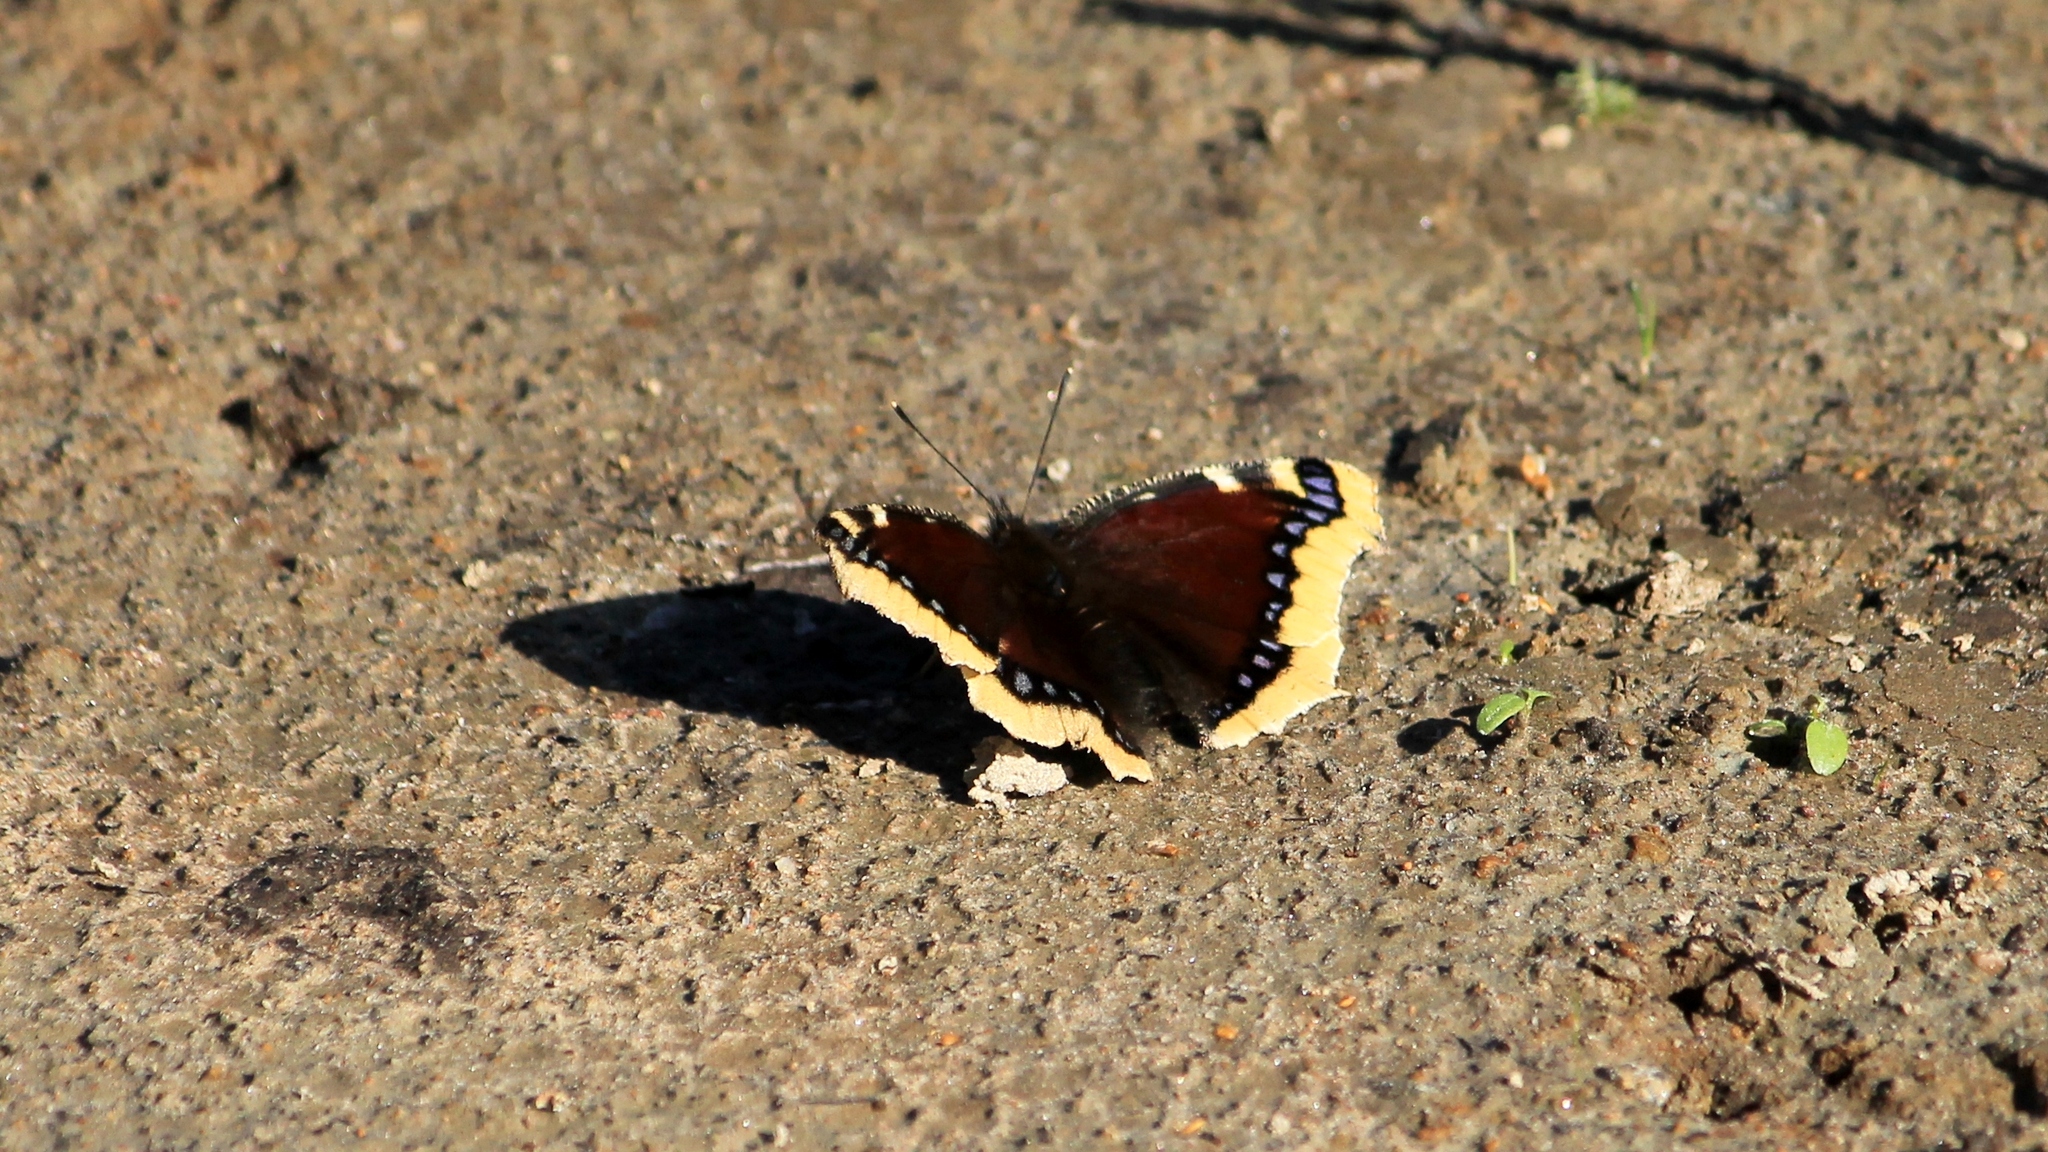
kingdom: Animalia
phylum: Arthropoda
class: Insecta
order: Lepidoptera
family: Nymphalidae
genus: Nymphalis
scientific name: Nymphalis antiopa
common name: Camberwell beauty
